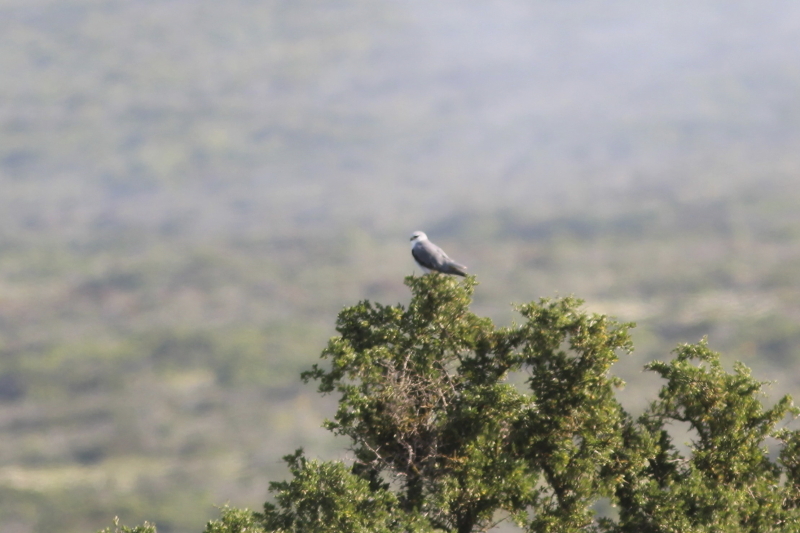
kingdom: Animalia
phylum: Chordata
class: Aves
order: Accipitriformes
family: Accipitridae
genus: Elanus
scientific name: Elanus caeruleus
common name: Black-winged kite
